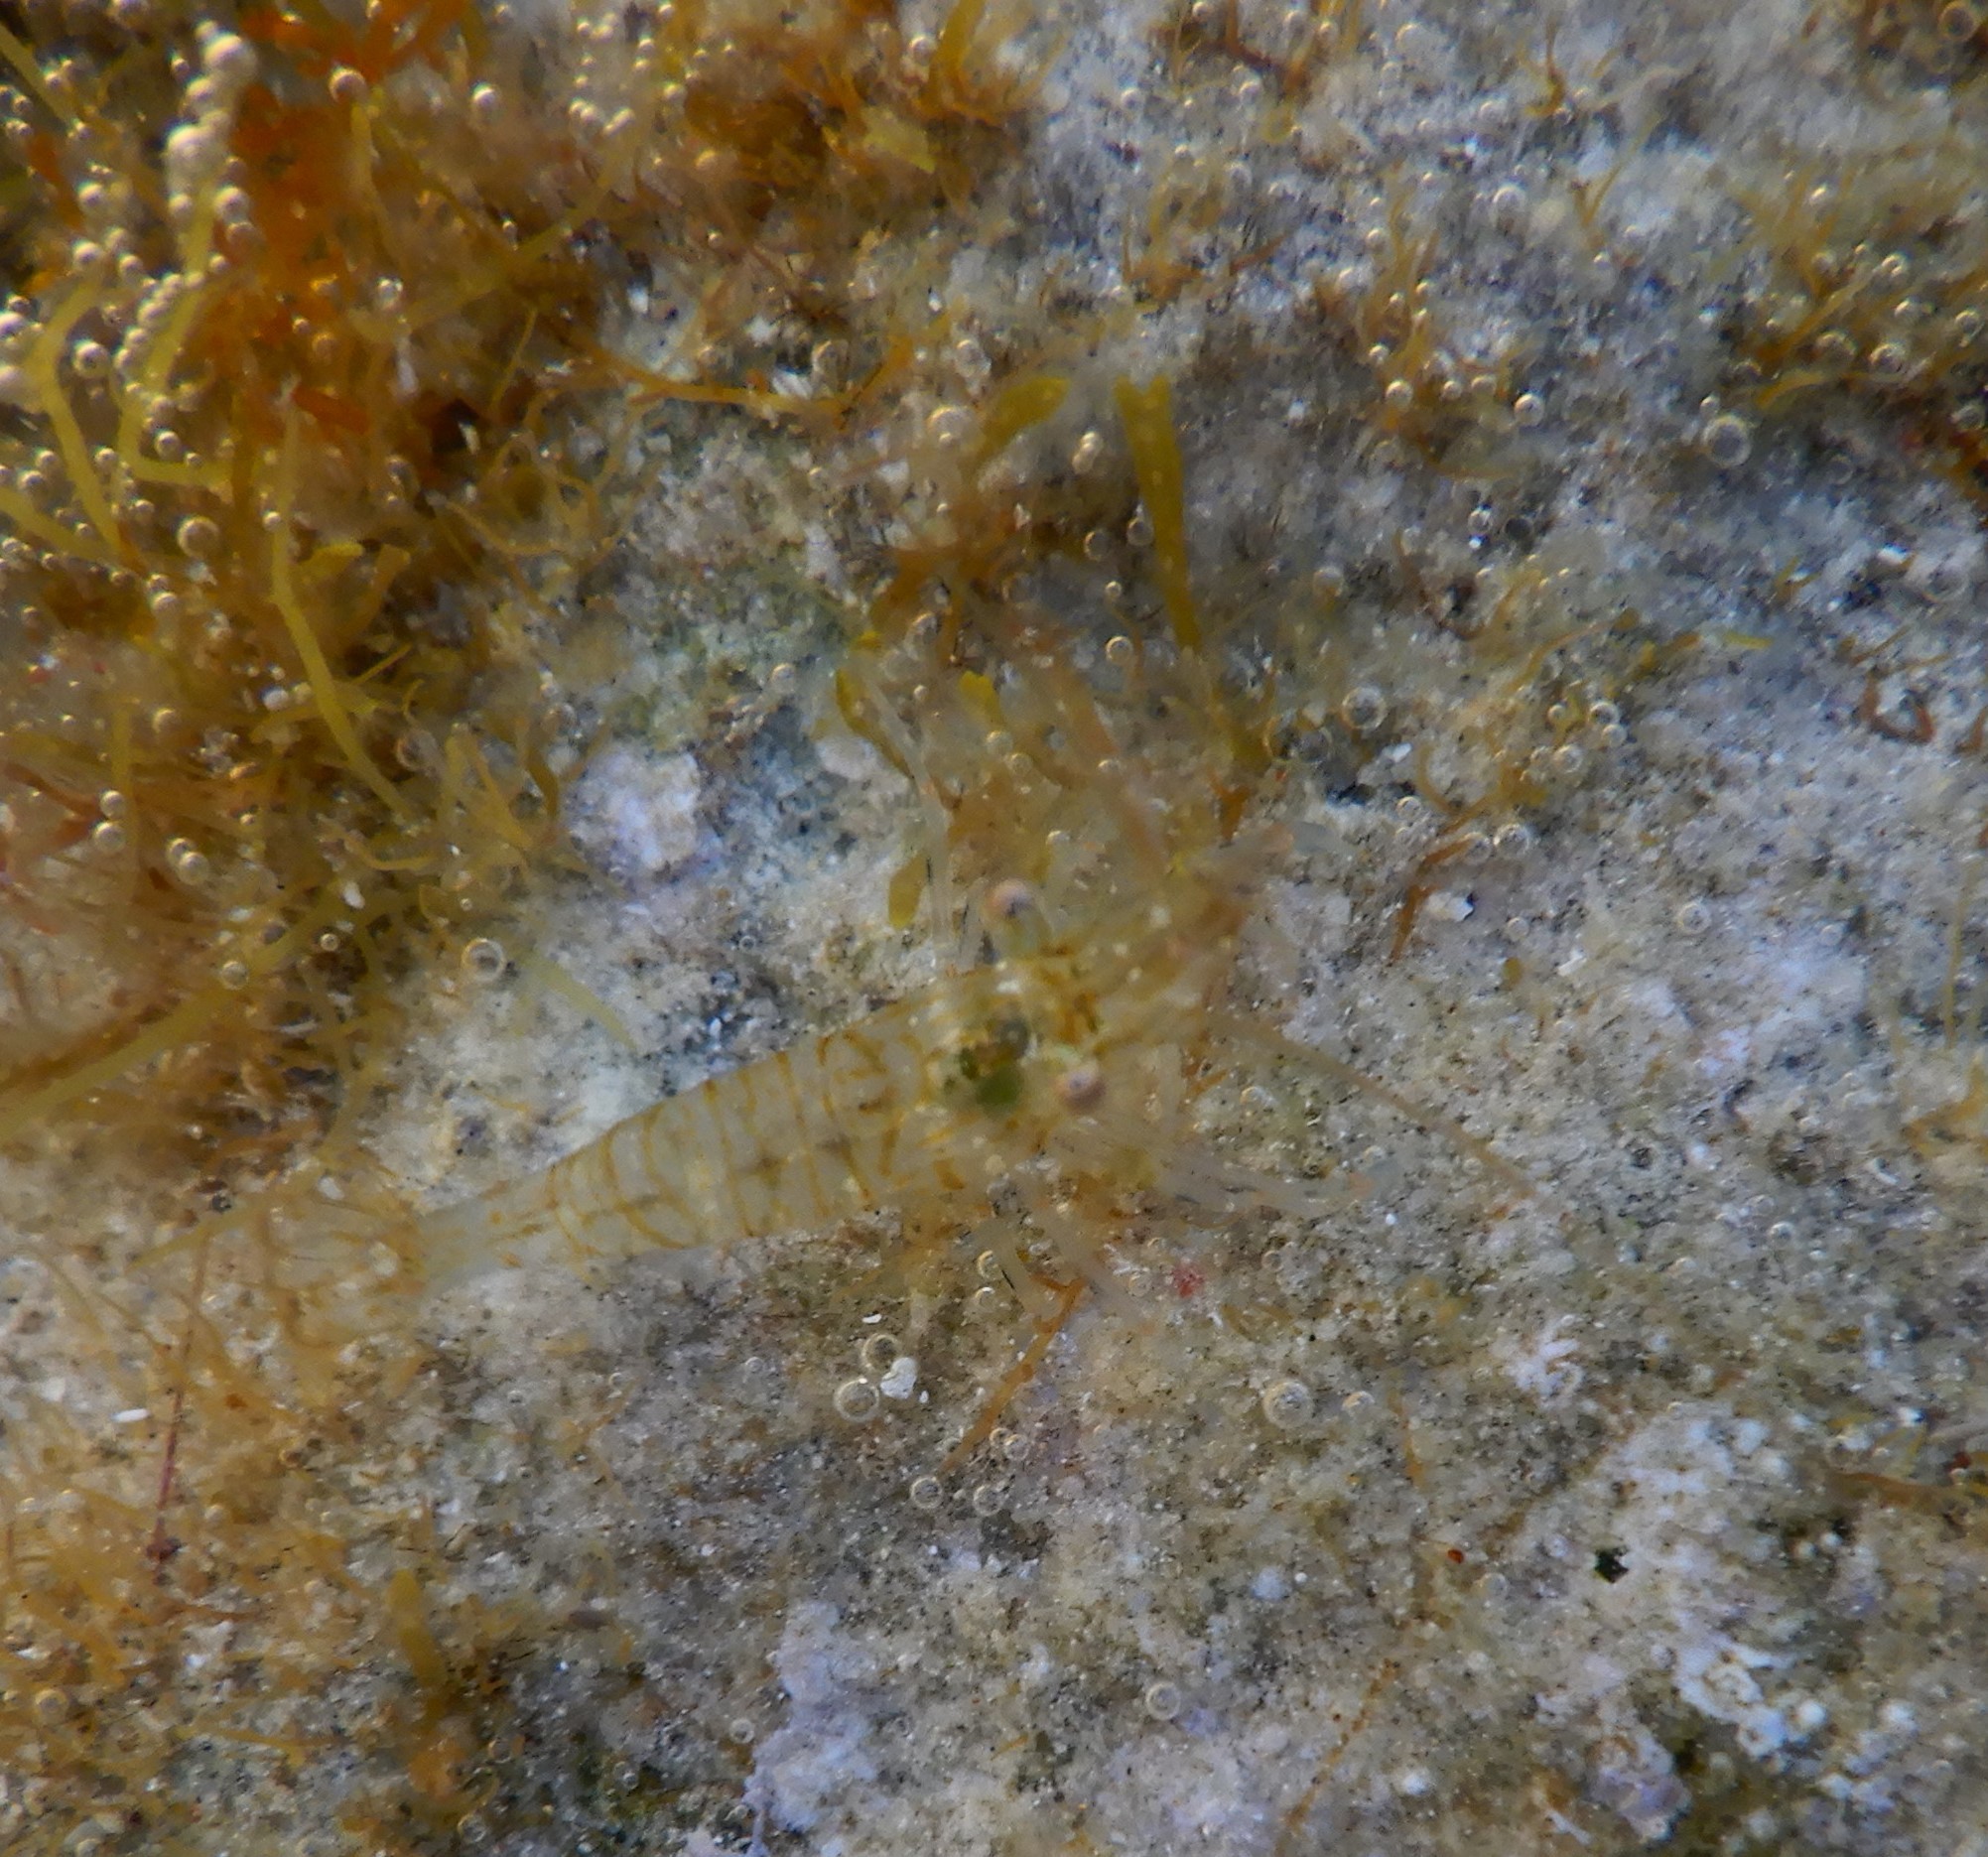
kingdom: Animalia
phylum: Arthropoda
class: Malacostraca
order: Decapoda
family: Palaemonidae
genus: Palaemon
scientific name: Palaemon elegans
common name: Grass prawm
